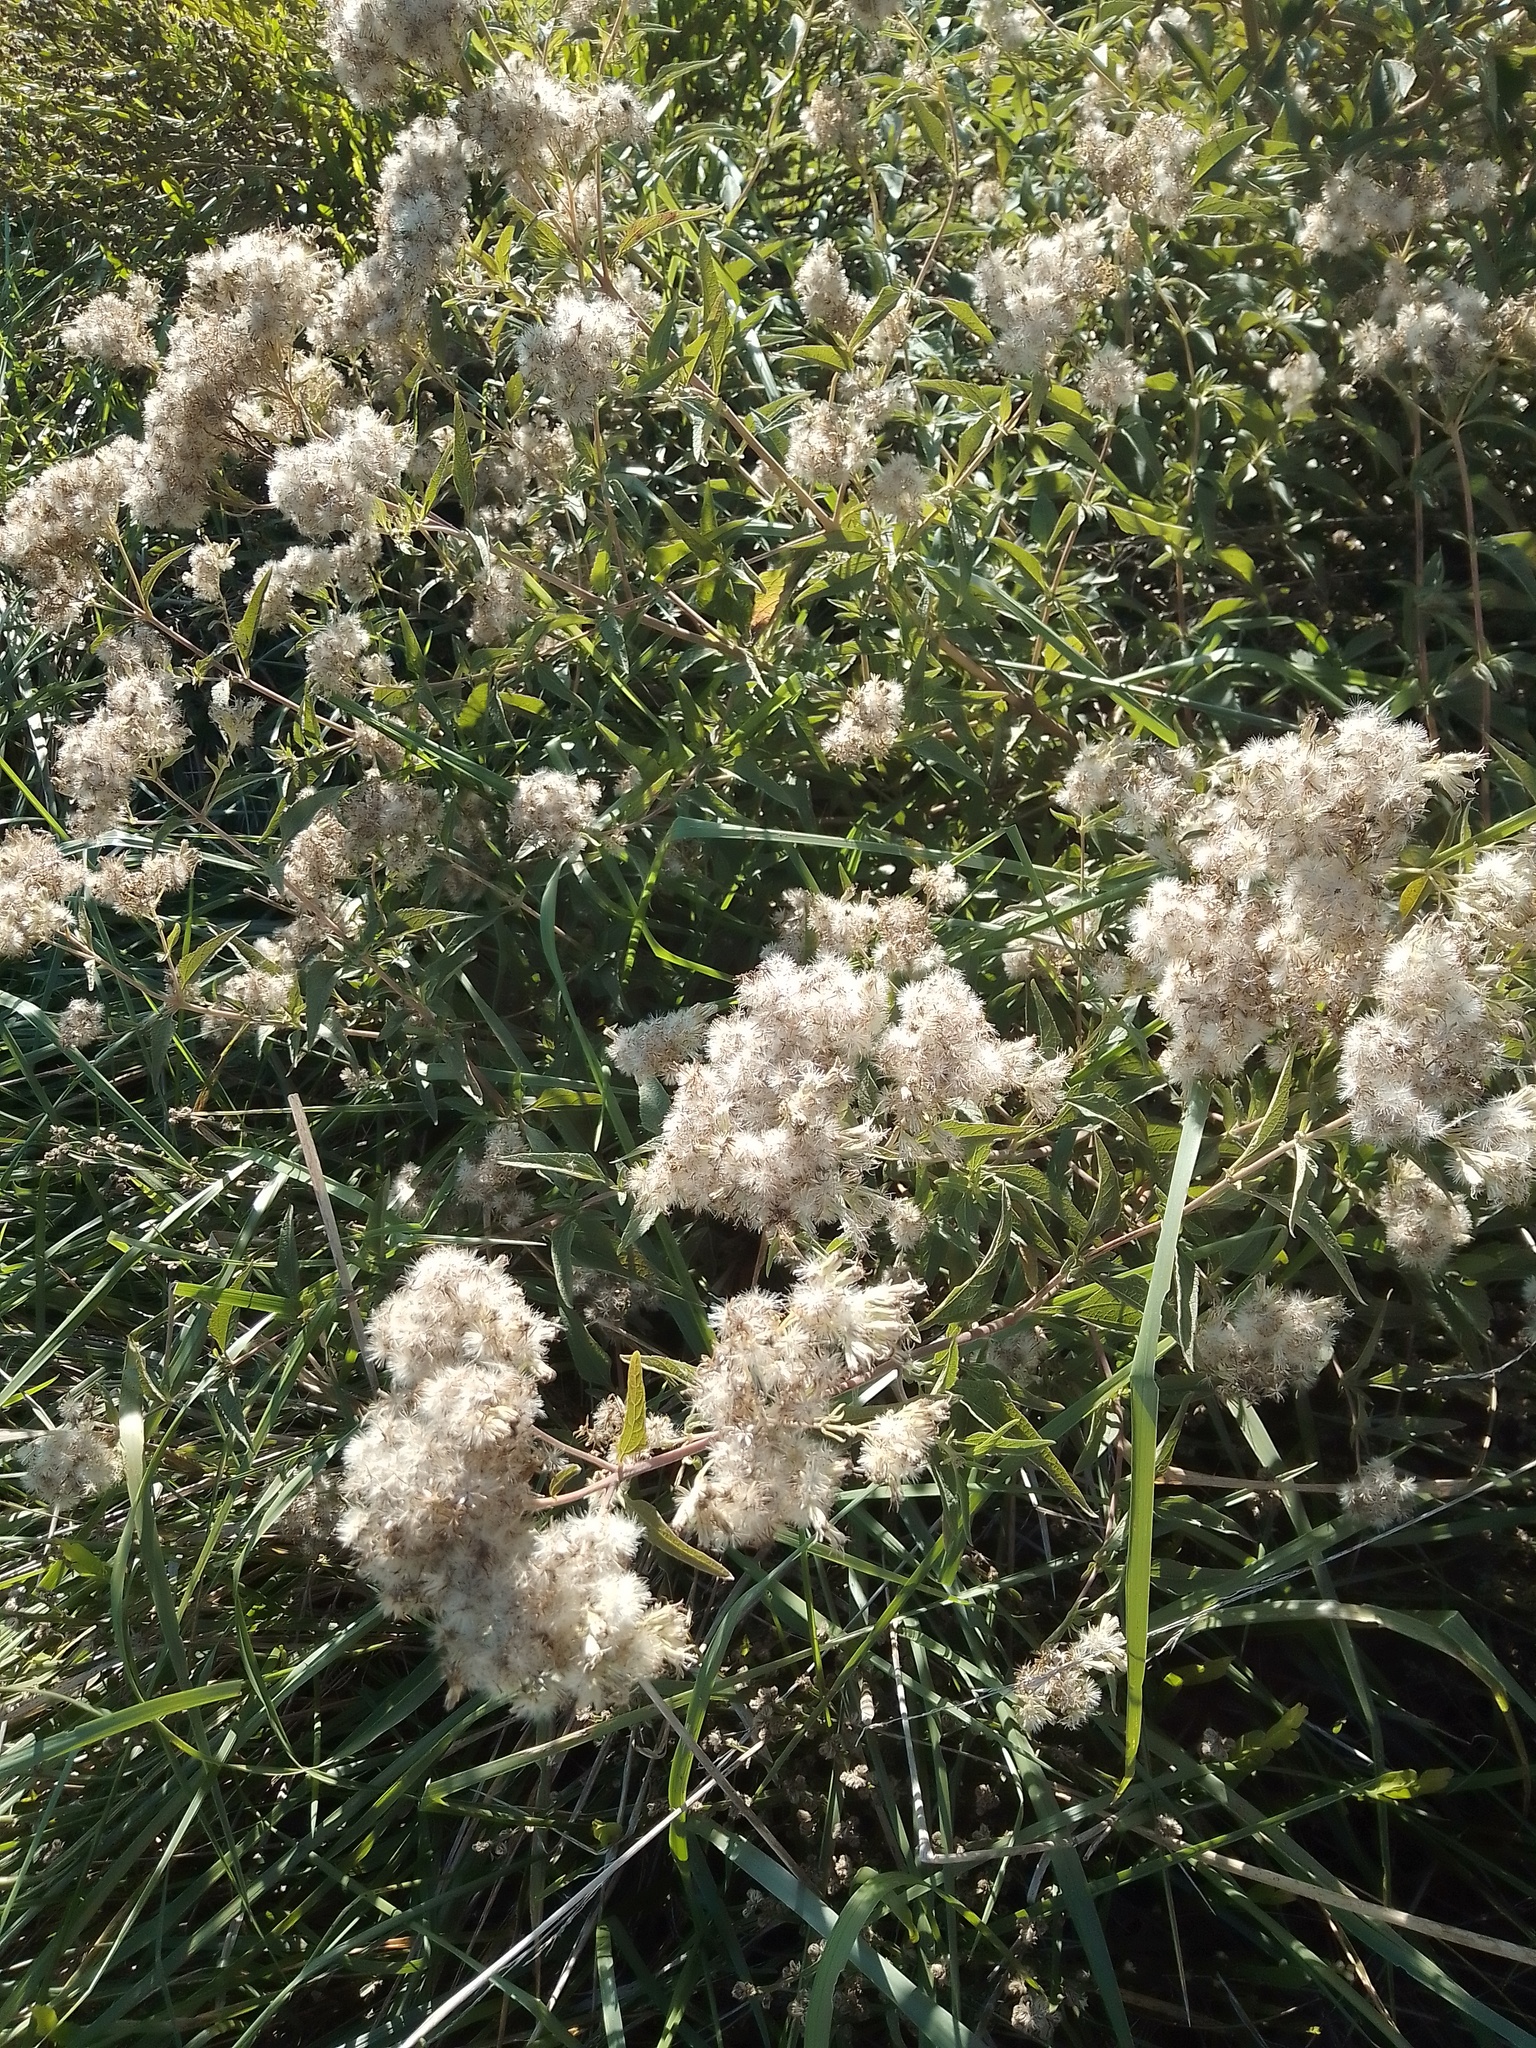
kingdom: Plantae
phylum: Tracheophyta
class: Magnoliopsida
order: Asterales
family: Asteraceae
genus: Austroeupatorium
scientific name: Austroeupatorium inulifolium
